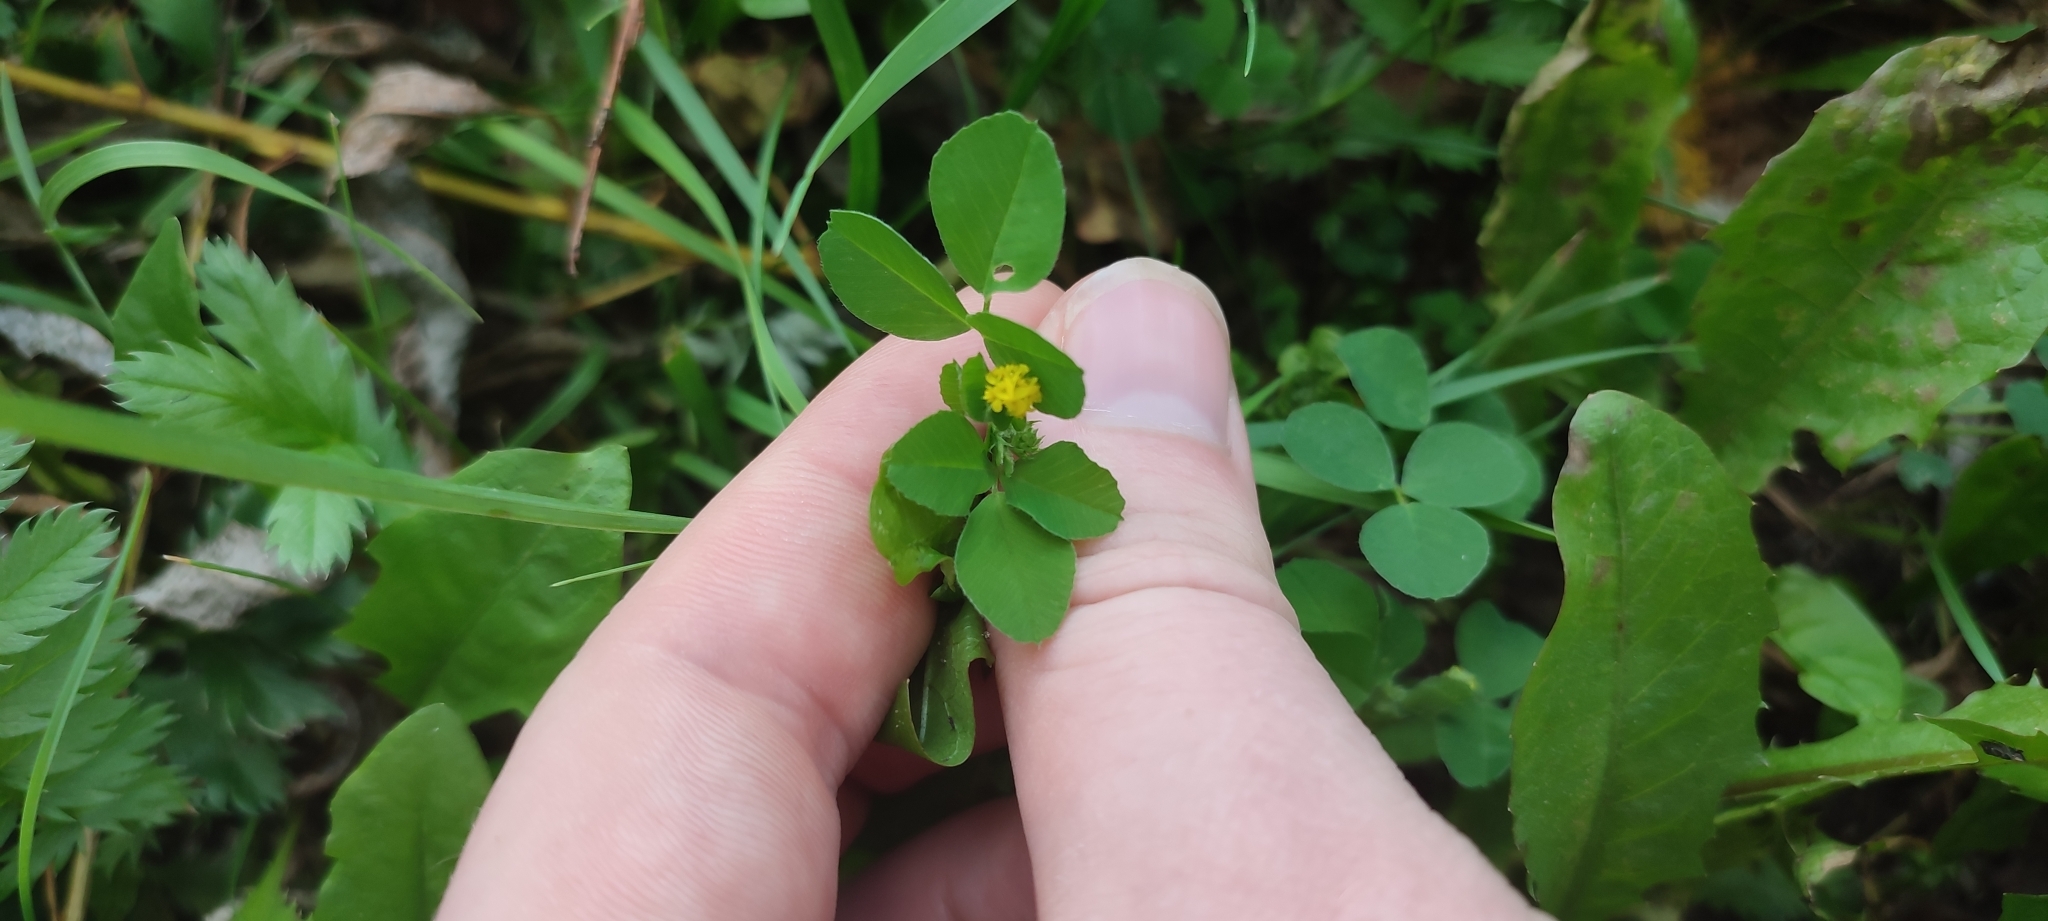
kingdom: Plantae
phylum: Tracheophyta
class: Magnoliopsida
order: Fabales
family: Fabaceae
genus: Medicago
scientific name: Medicago lupulina
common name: Black medick
